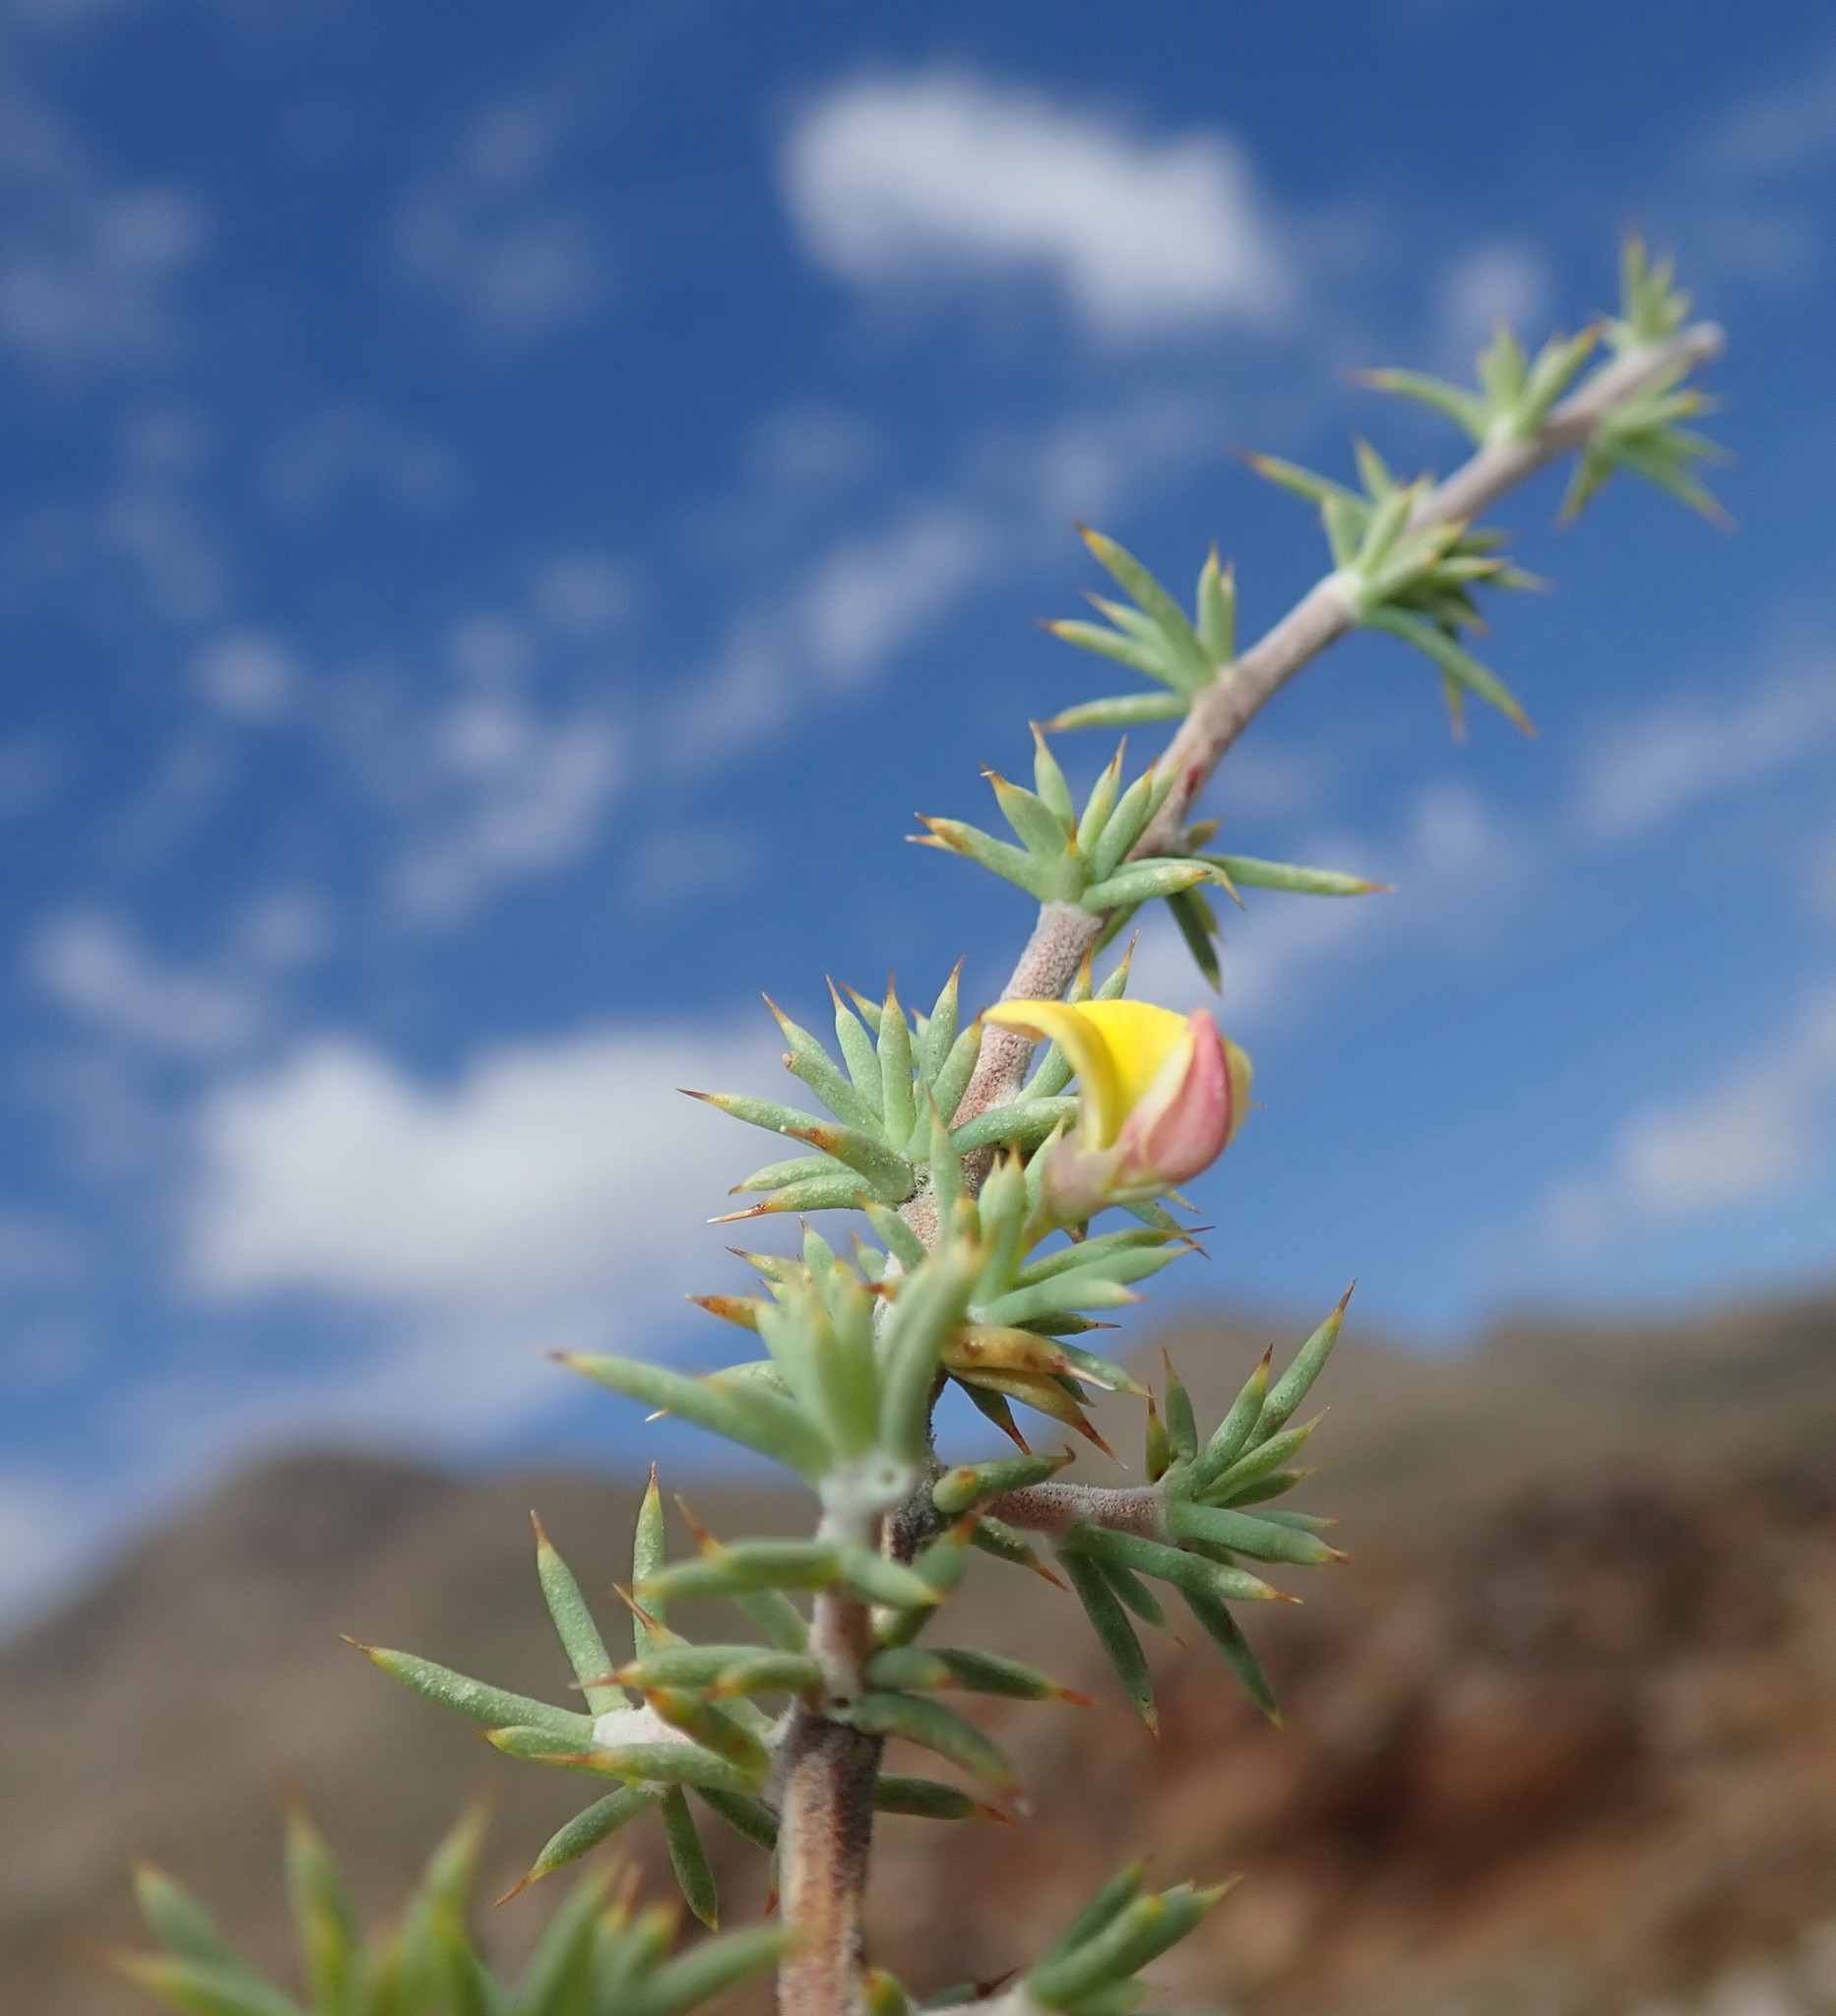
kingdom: Plantae
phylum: Tracheophyta
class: Magnoliopsida
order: Fabales
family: Fabaceae
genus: Aspalathus
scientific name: Aspalathus rigidifolia
